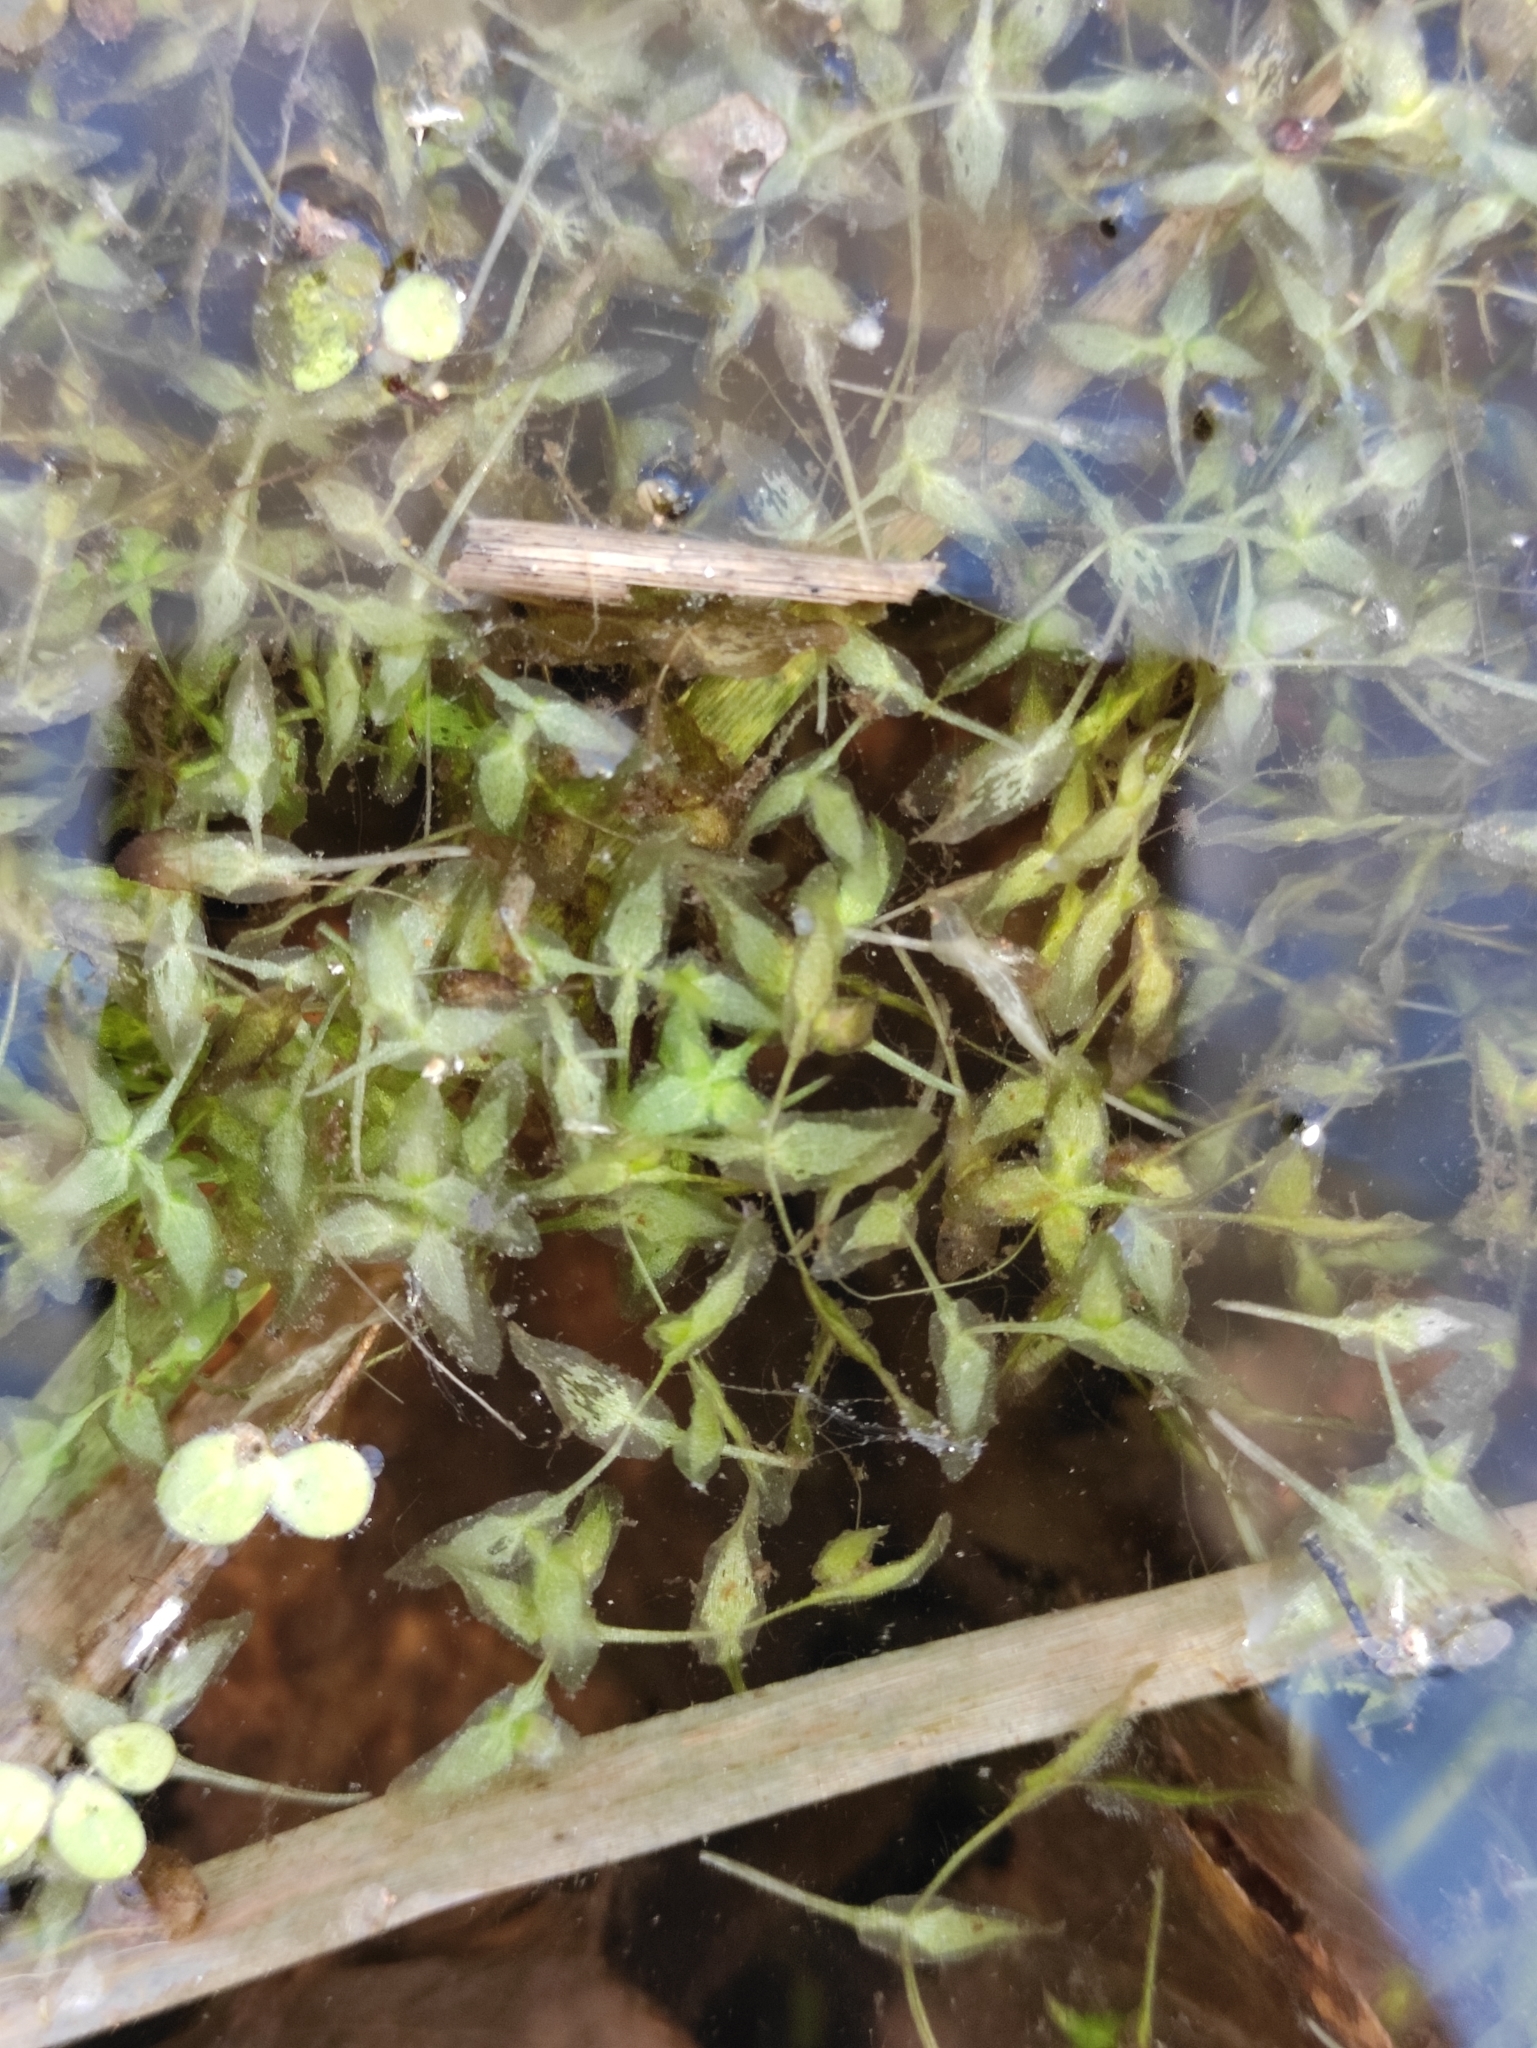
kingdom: Plantae
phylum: Tracheophyta
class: Liliopsida
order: Alismatales
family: Araceae
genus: Lemna
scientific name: Lemna trisulca
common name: Ivy-leaved duckweed
